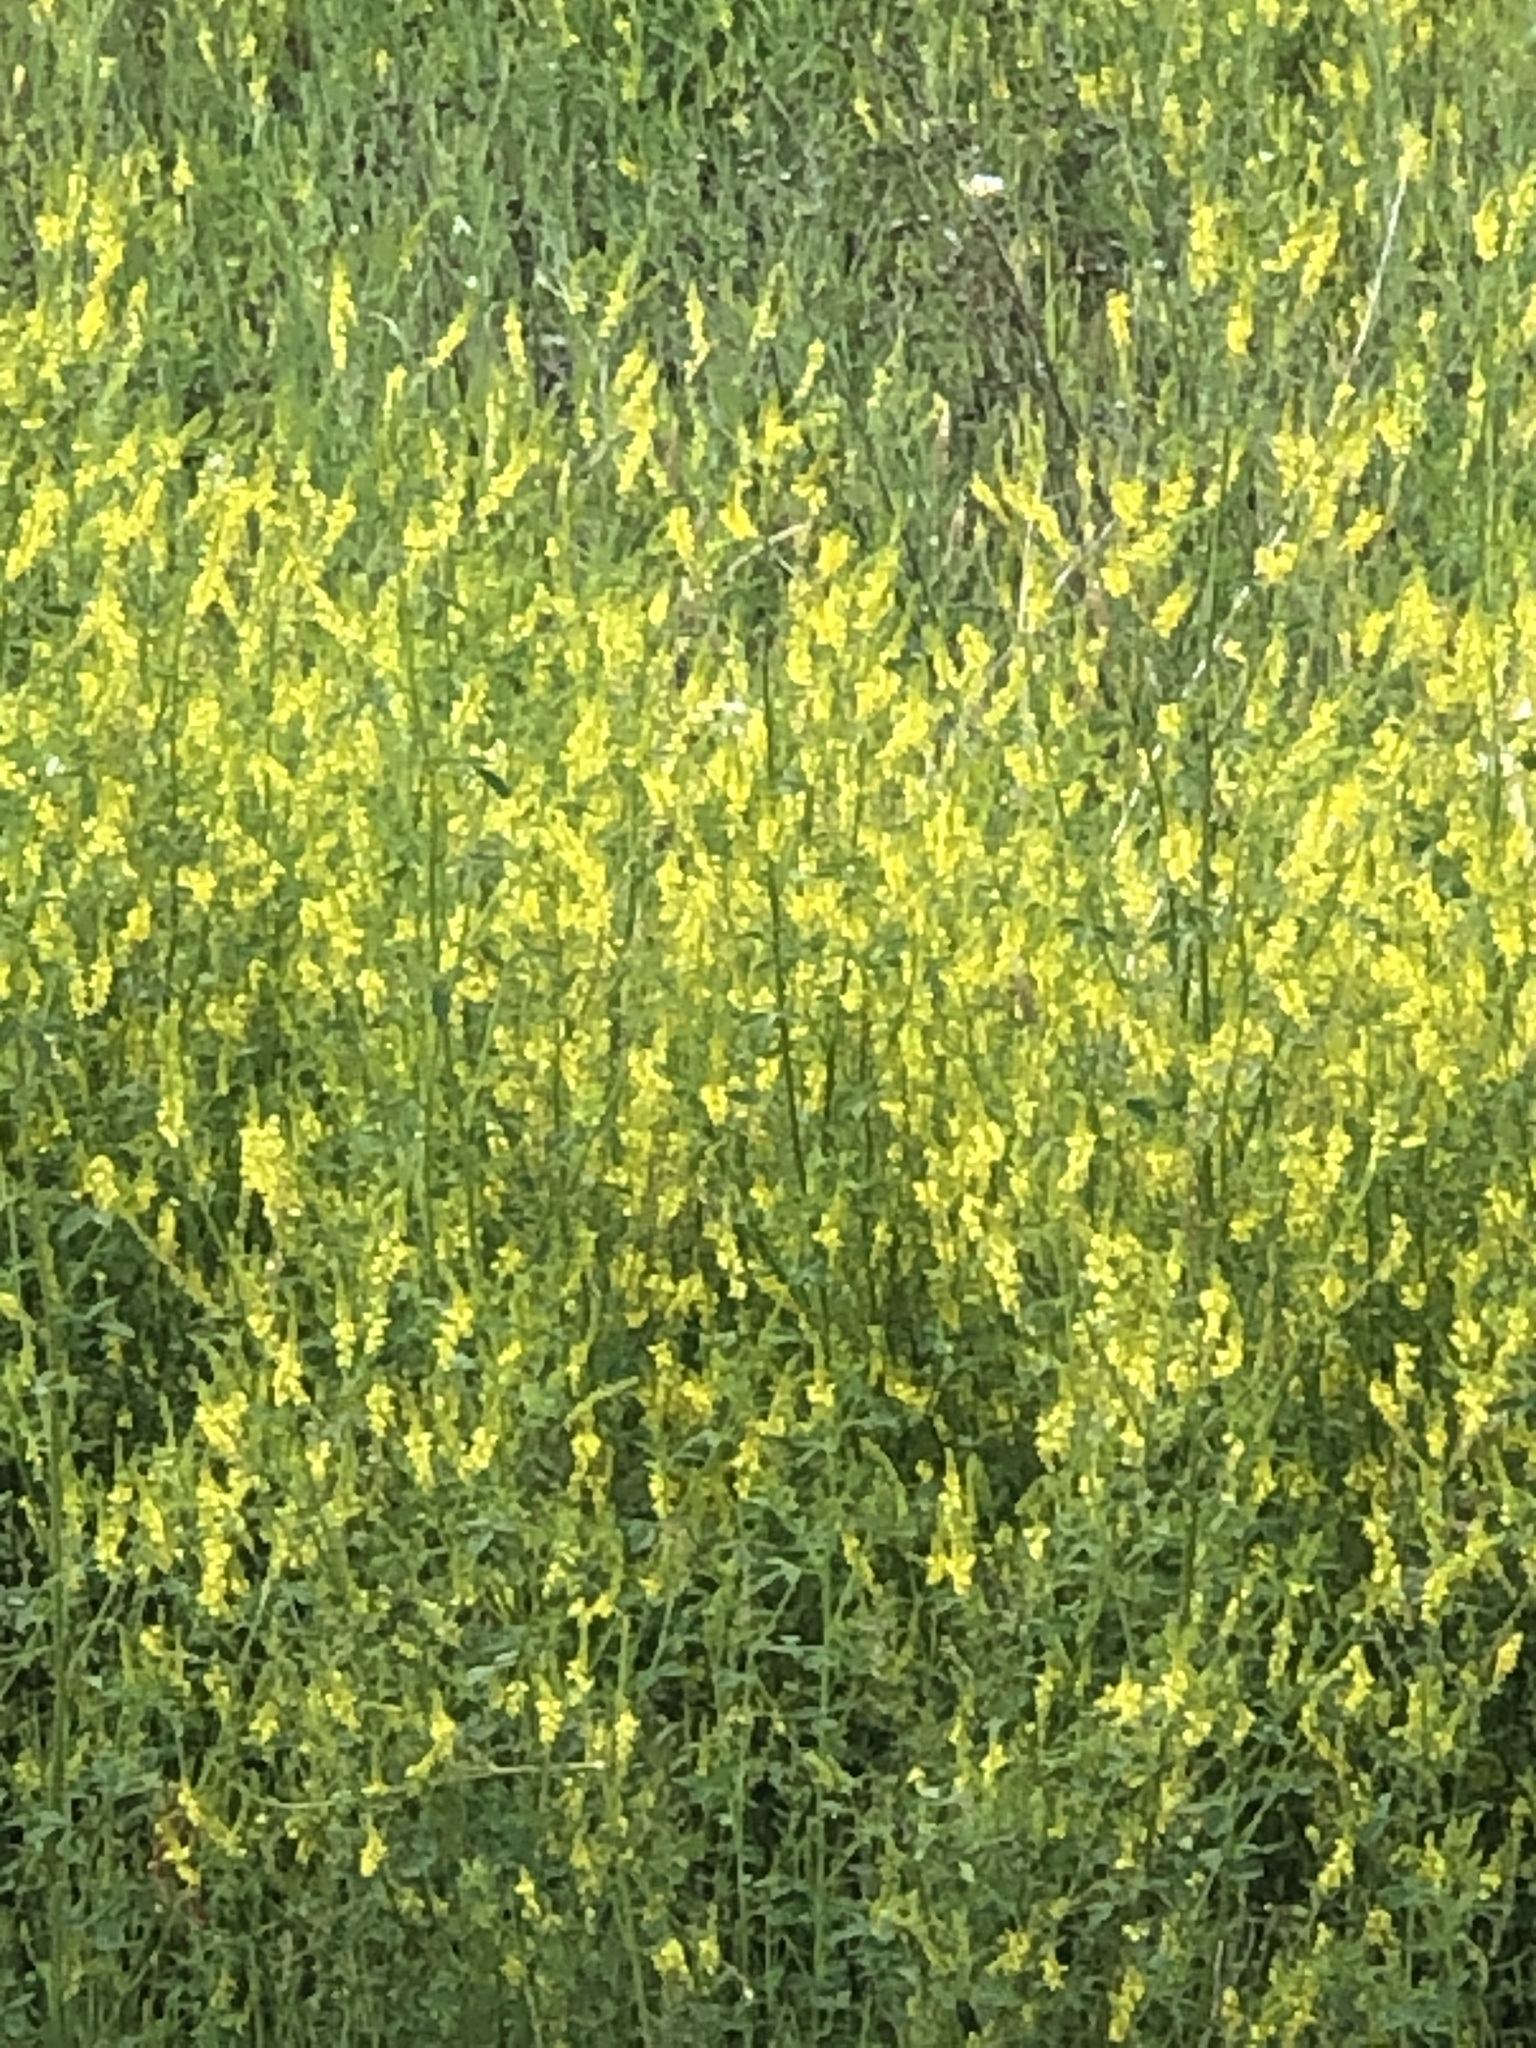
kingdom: Plantae
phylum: Tracheophyta
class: Magnoliopsida
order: Fabales
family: Fabaceae
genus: Melilotus
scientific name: Melilotus officinalis
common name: Sweetclover
